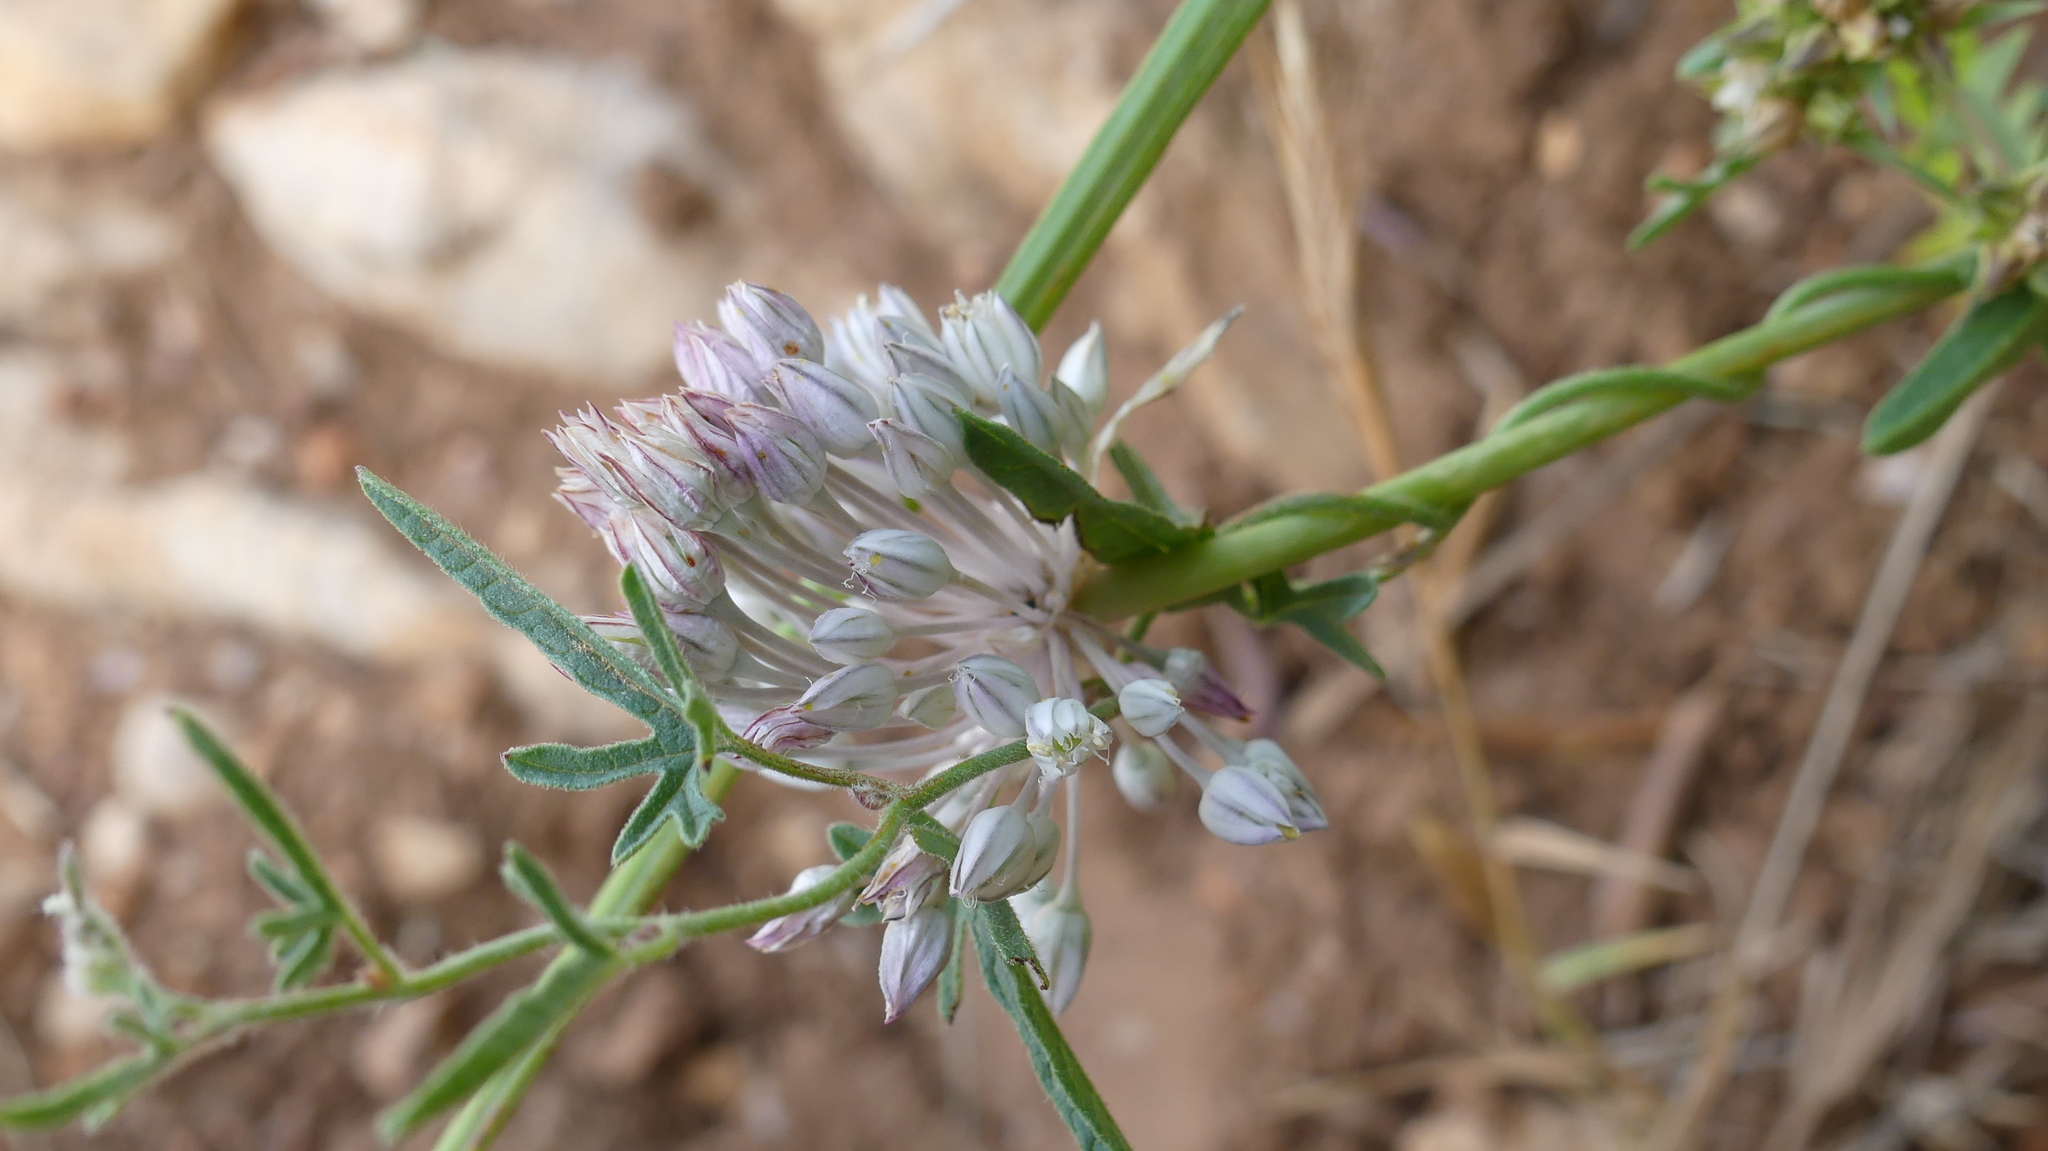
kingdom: Plantae
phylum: Tracheophyta
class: Magnoliopsida
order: Solanales
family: Convolvulaceae
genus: Convolvulus
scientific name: Convolvulus althaeoides
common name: Mallow bindweed
